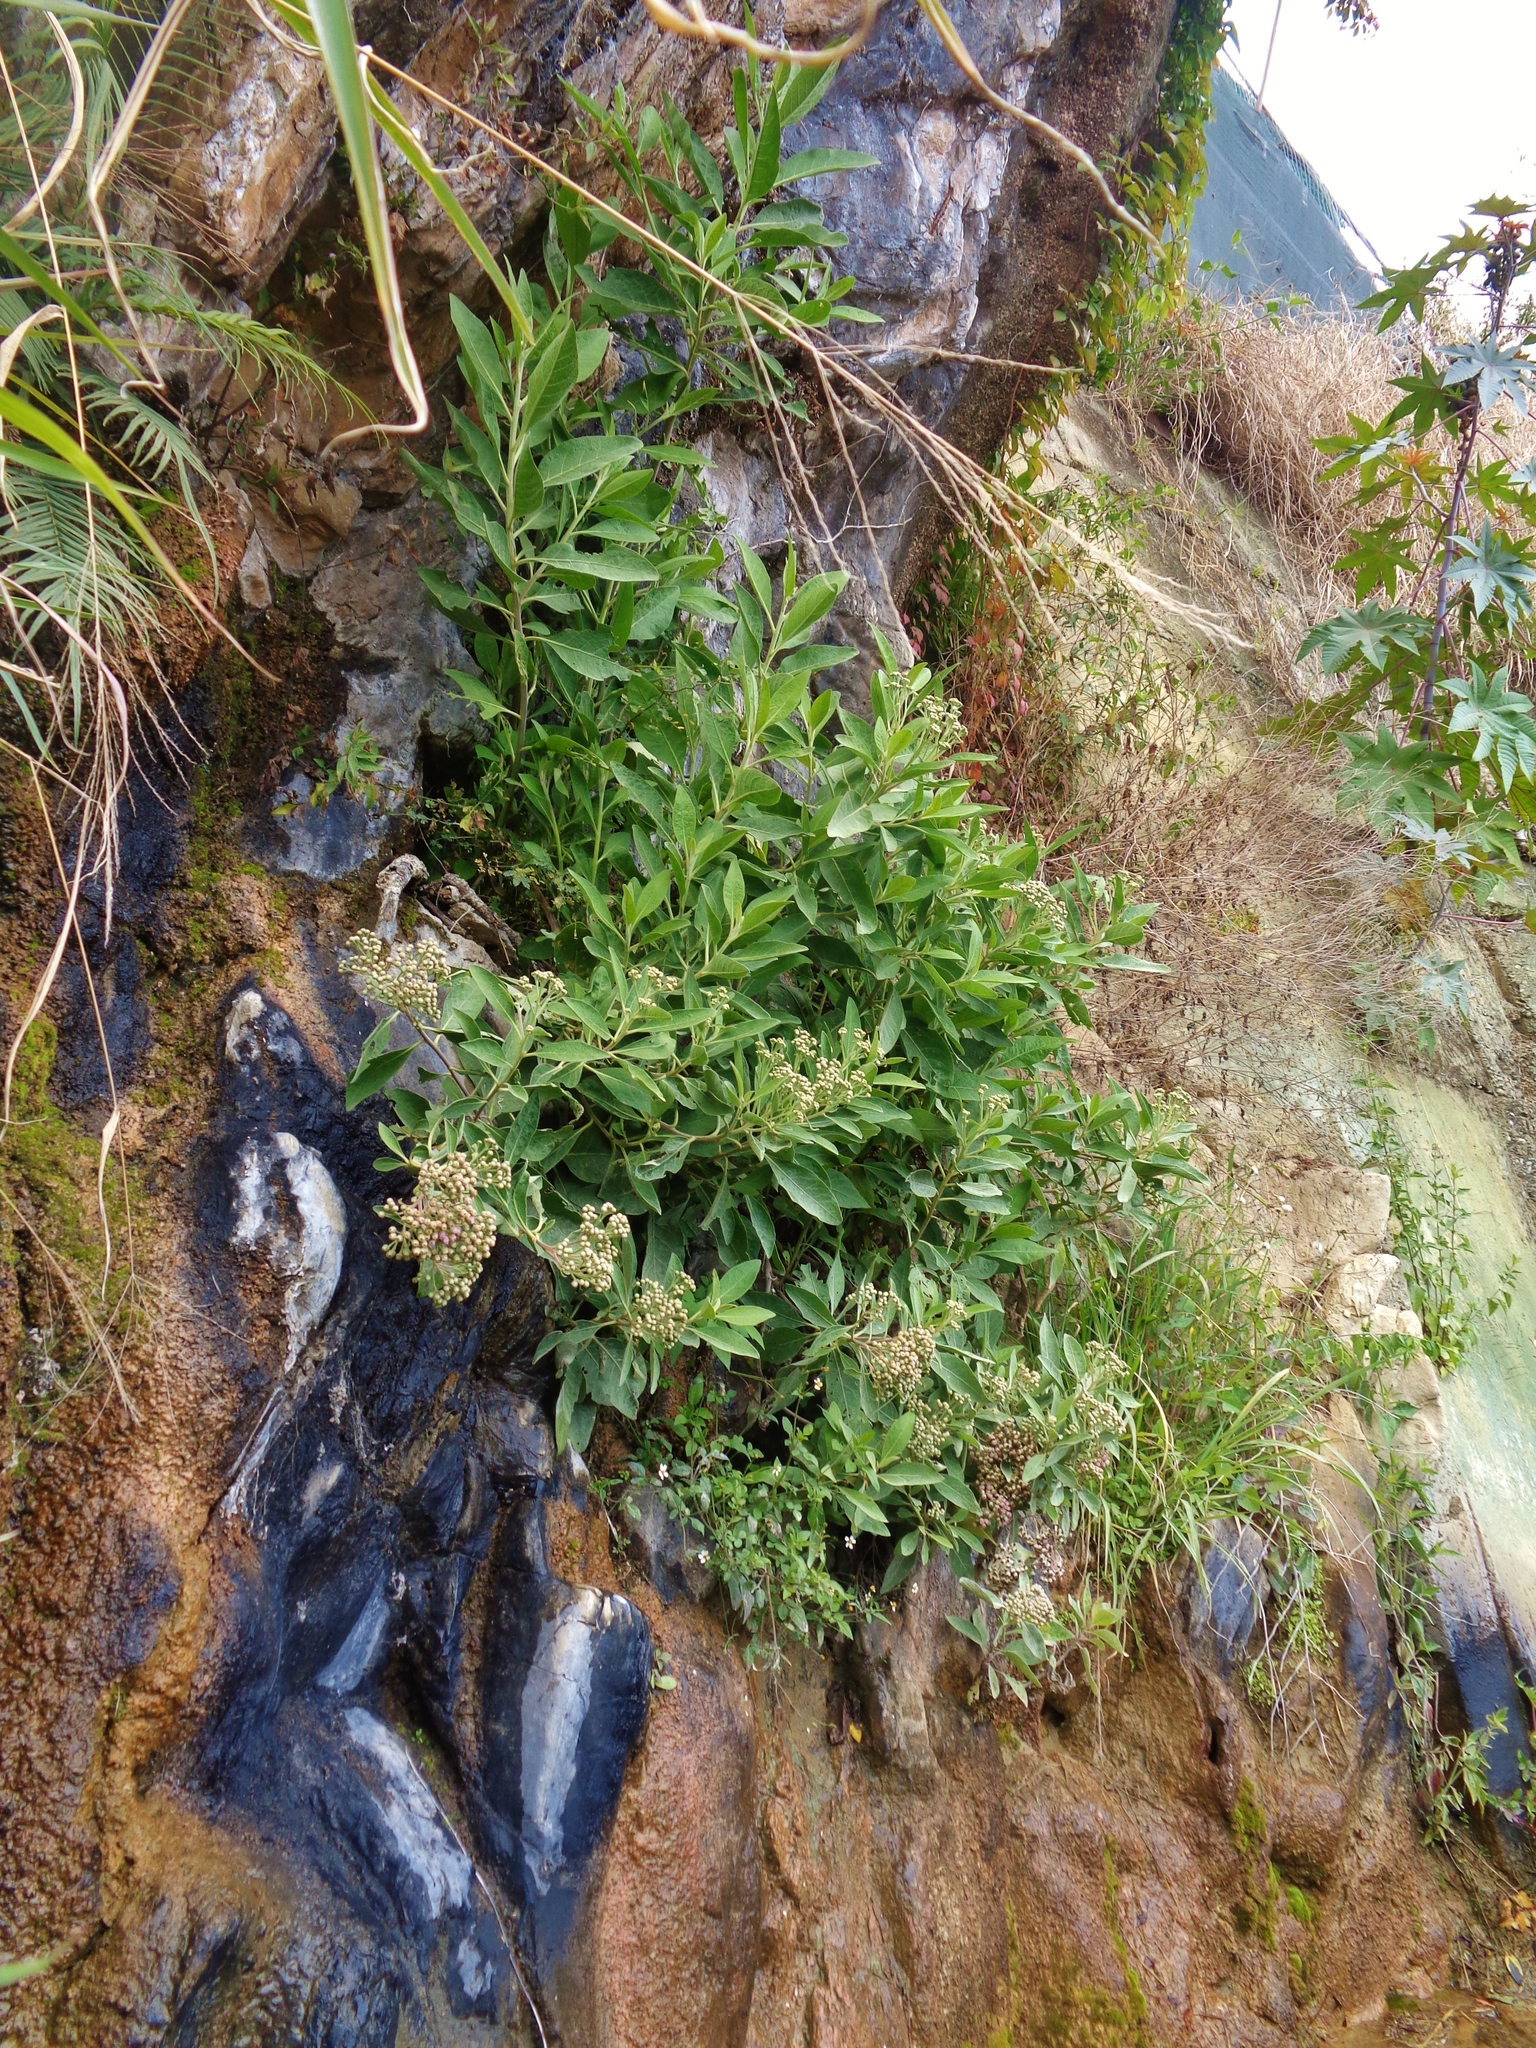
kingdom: Plantae
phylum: Tracheophyta
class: Magnoliopsida
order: Asterales
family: Asteraceae
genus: Pluchea
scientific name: Pluchea carolinensis
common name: Marsh fleabane
